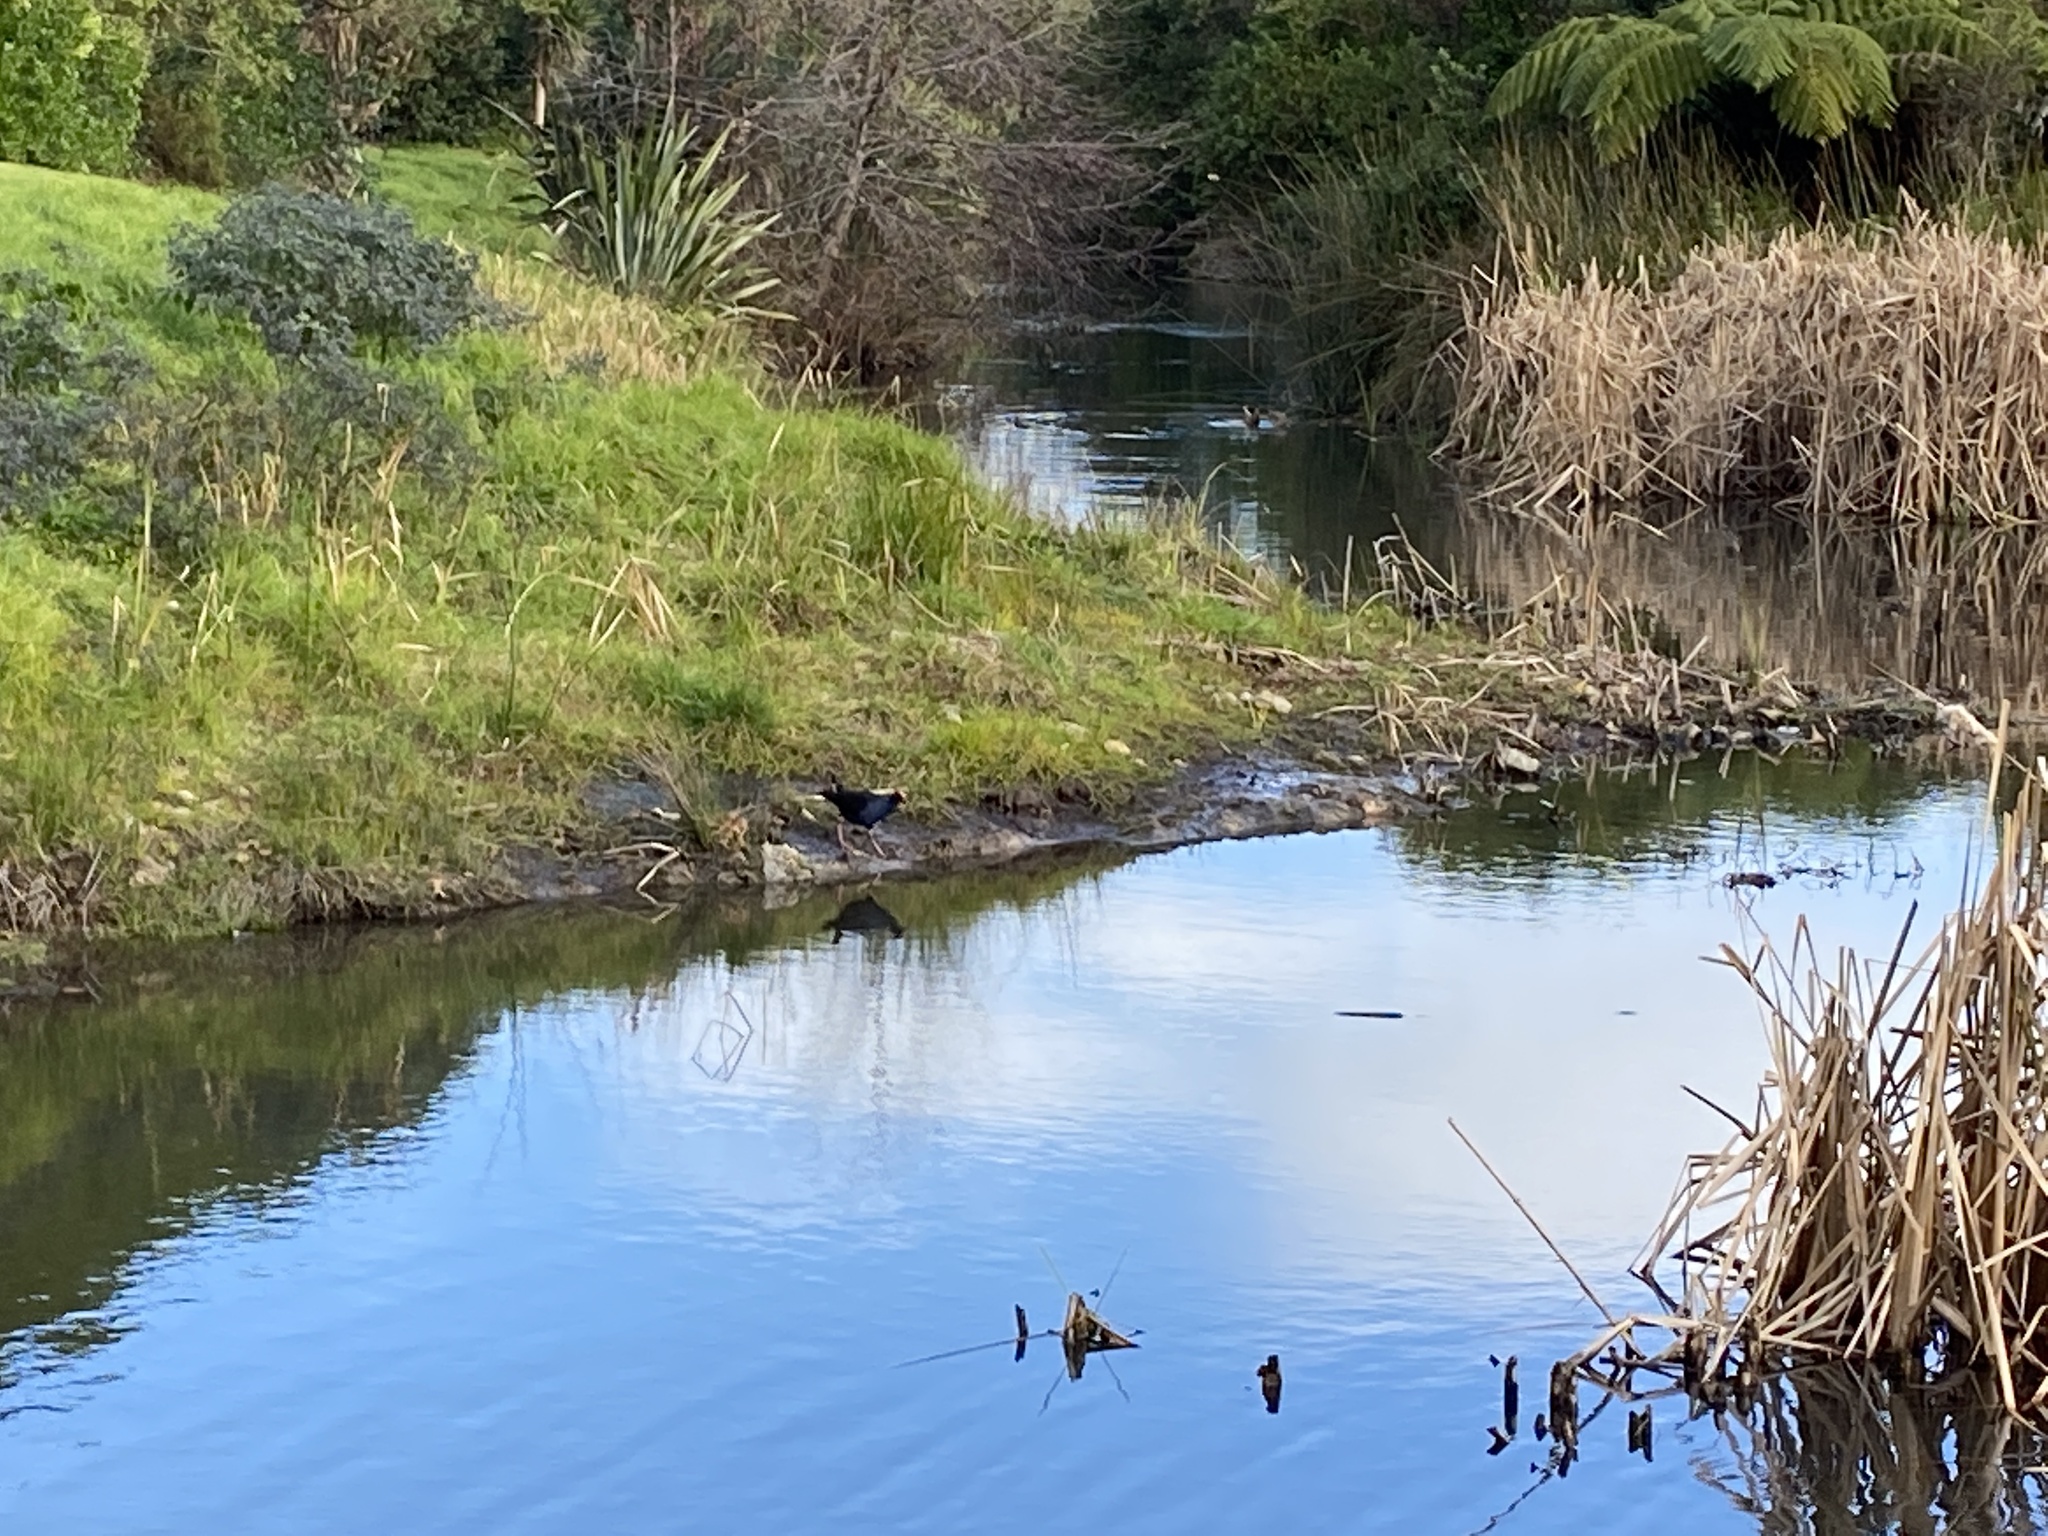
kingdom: Animalia
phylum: Chordata
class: Aves
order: Gruiformes
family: Rallidae
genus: Porphyrio
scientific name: Porphyrio melanotus
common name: Australasian swamphen
